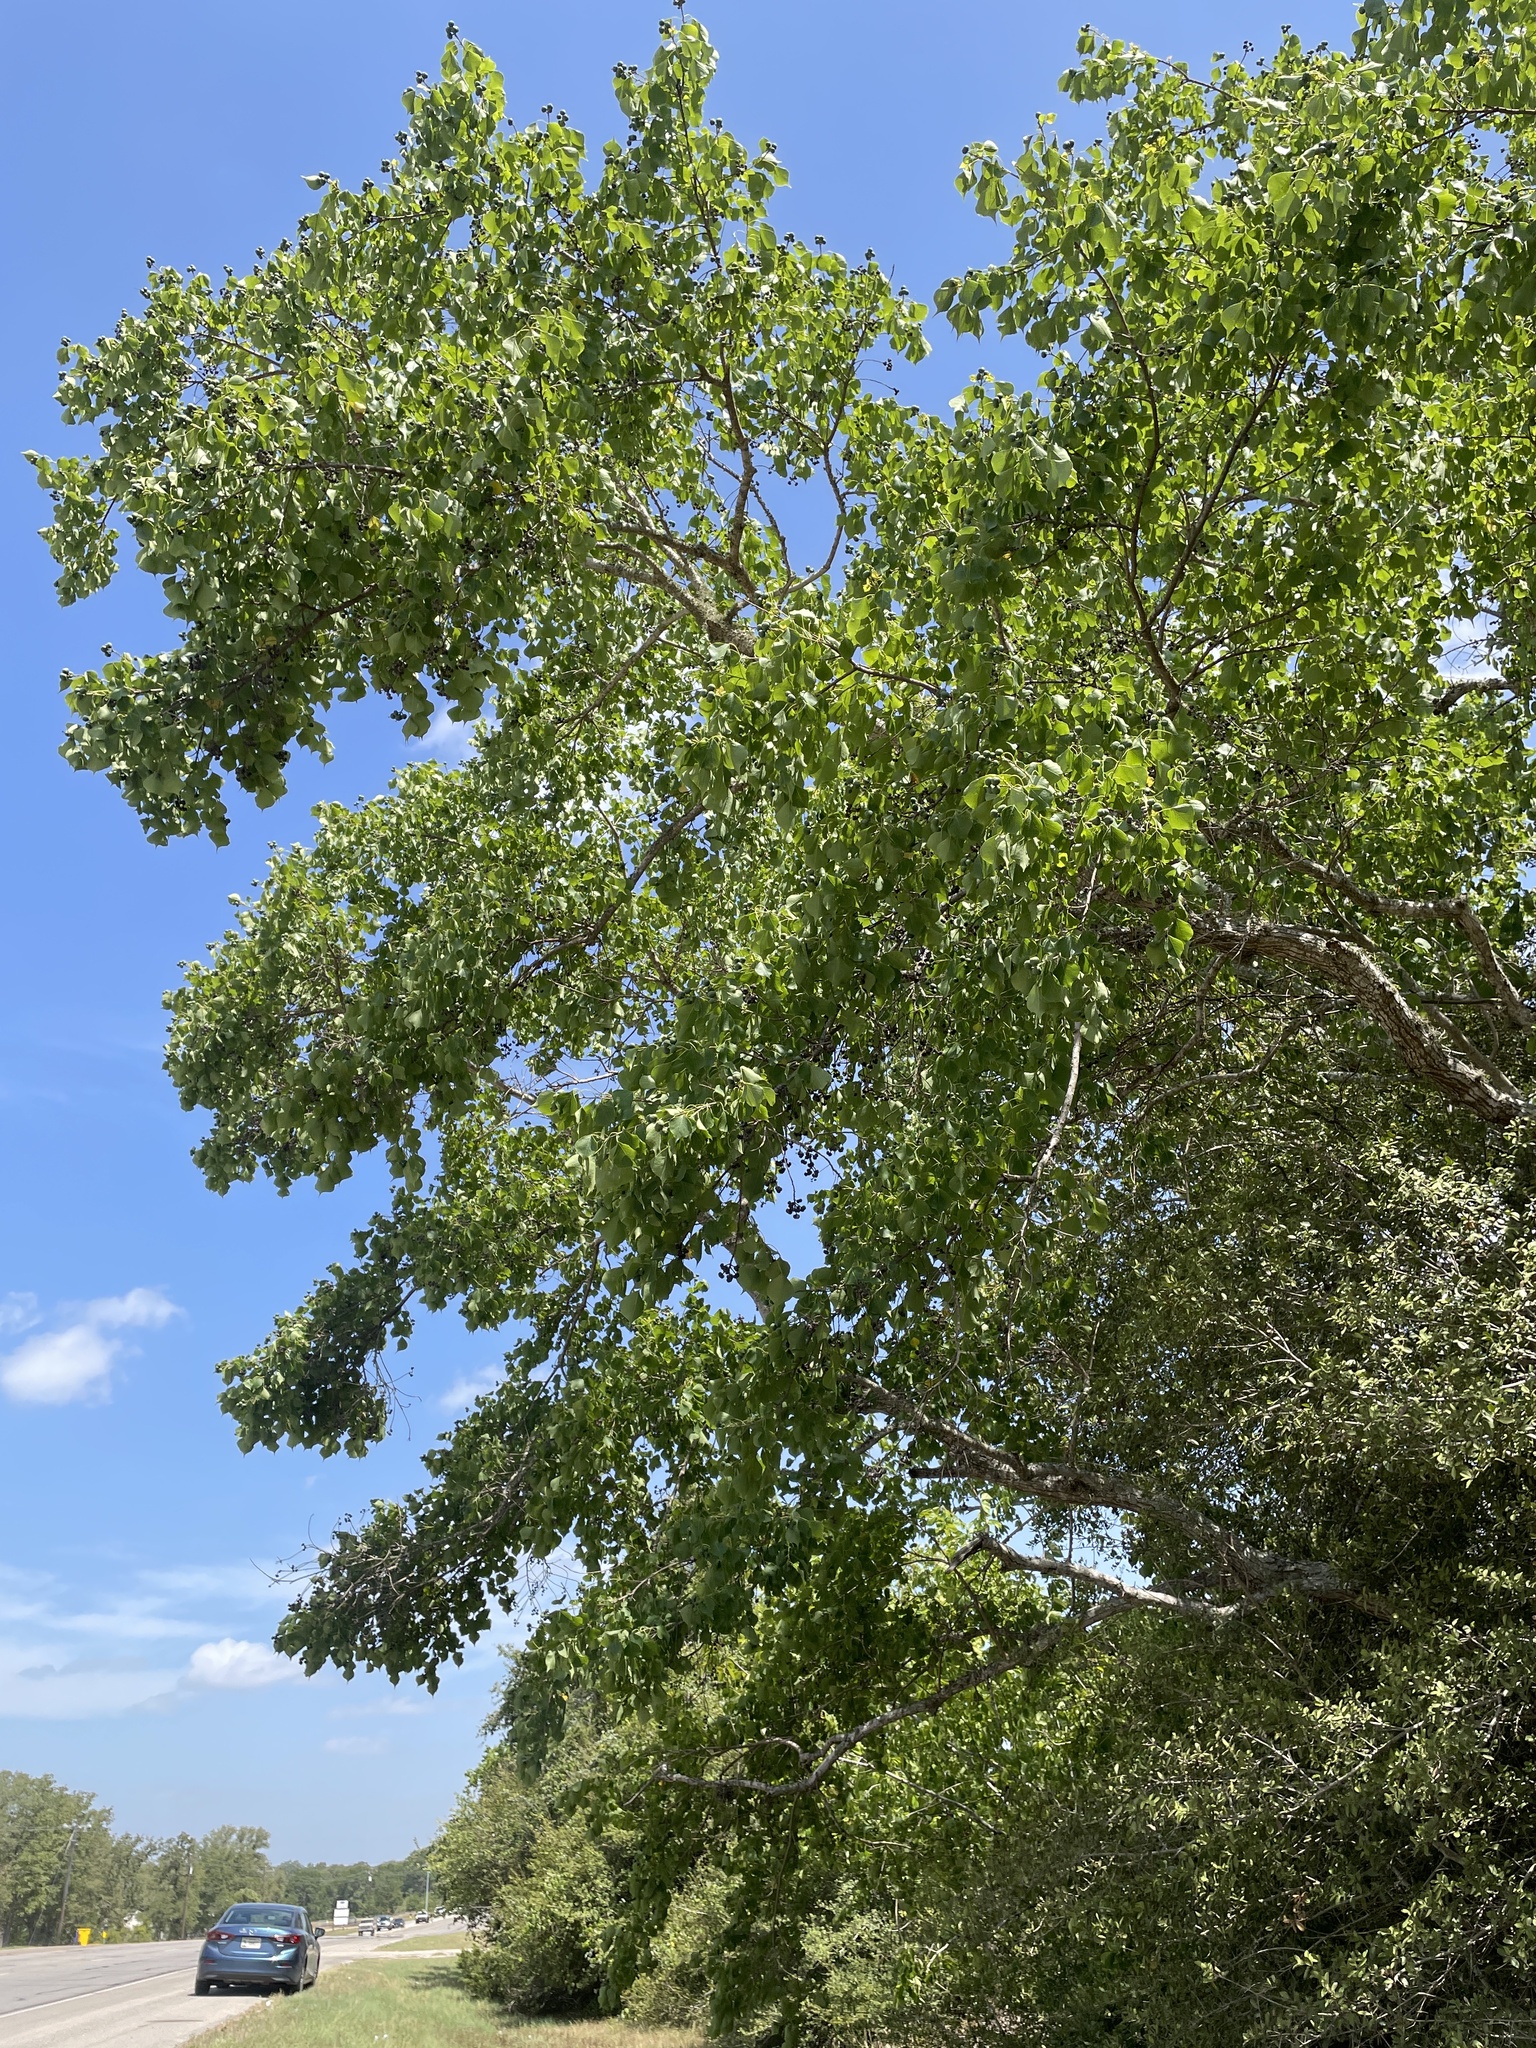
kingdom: Plantae
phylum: Tracheophyta
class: Magnoliopsida
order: Malpighiales
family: Euphorbiaceae
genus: Triadica
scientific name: Triadica sebifera
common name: Chinese tallow
